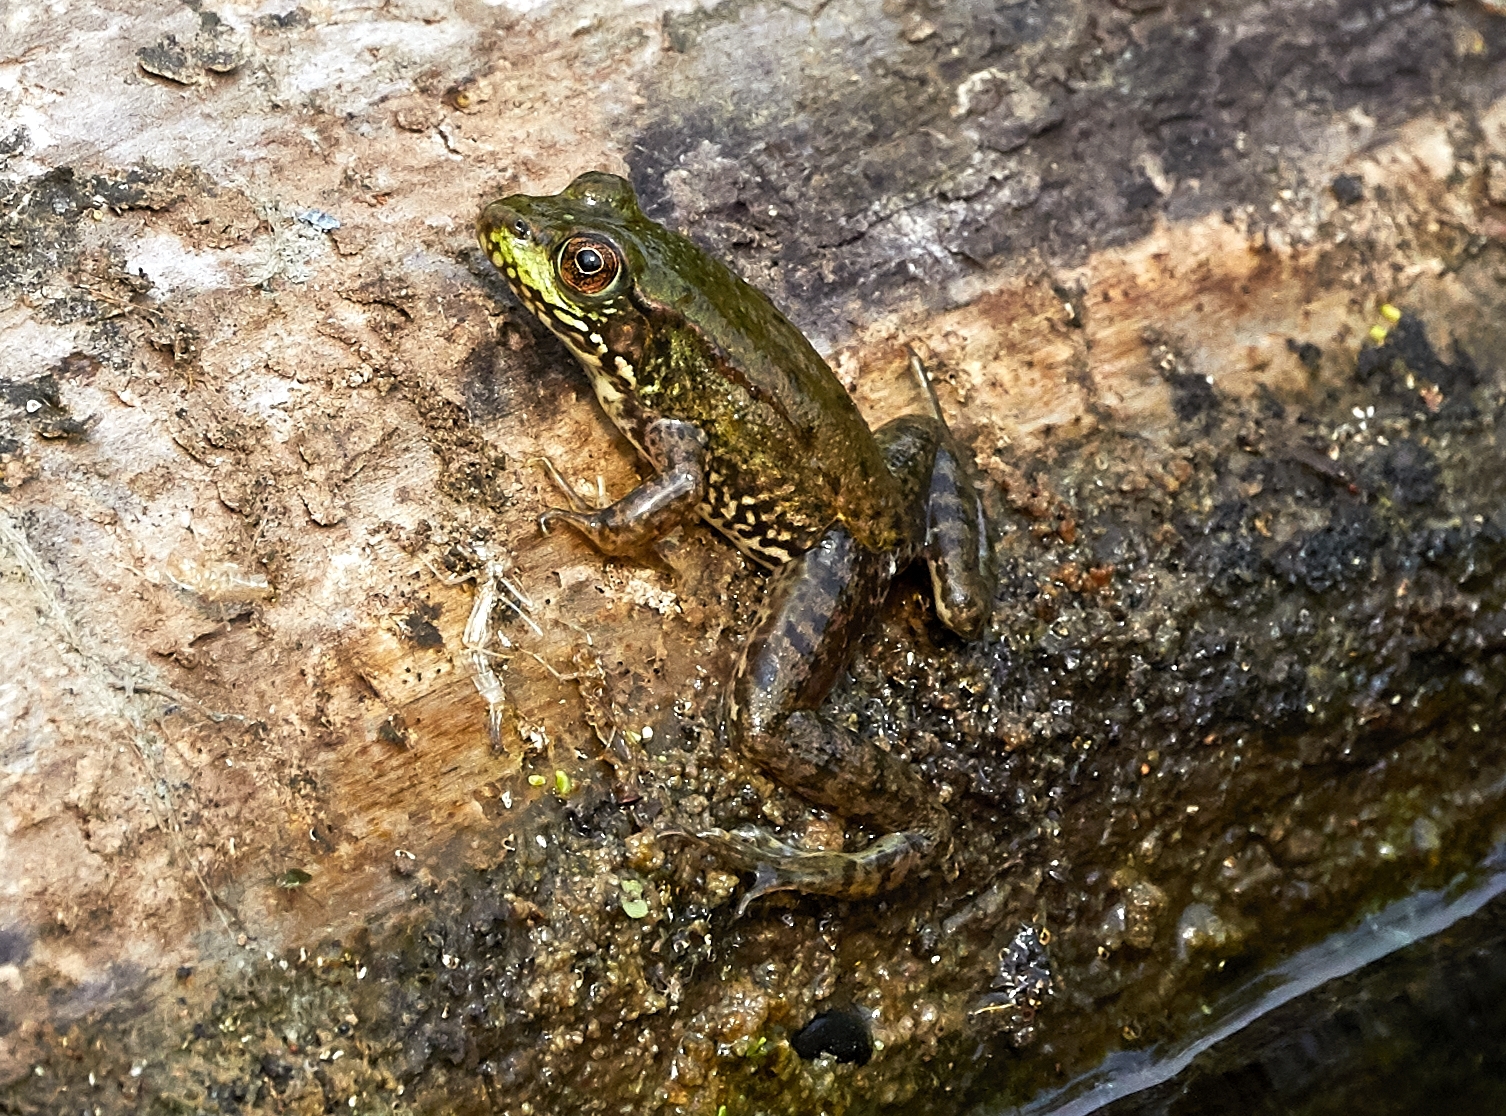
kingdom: Animalia
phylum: Chordata
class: Amphibia
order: Anura
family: Ranidae
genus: Lithobates
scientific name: Lithobates clamitans
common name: Green frog
